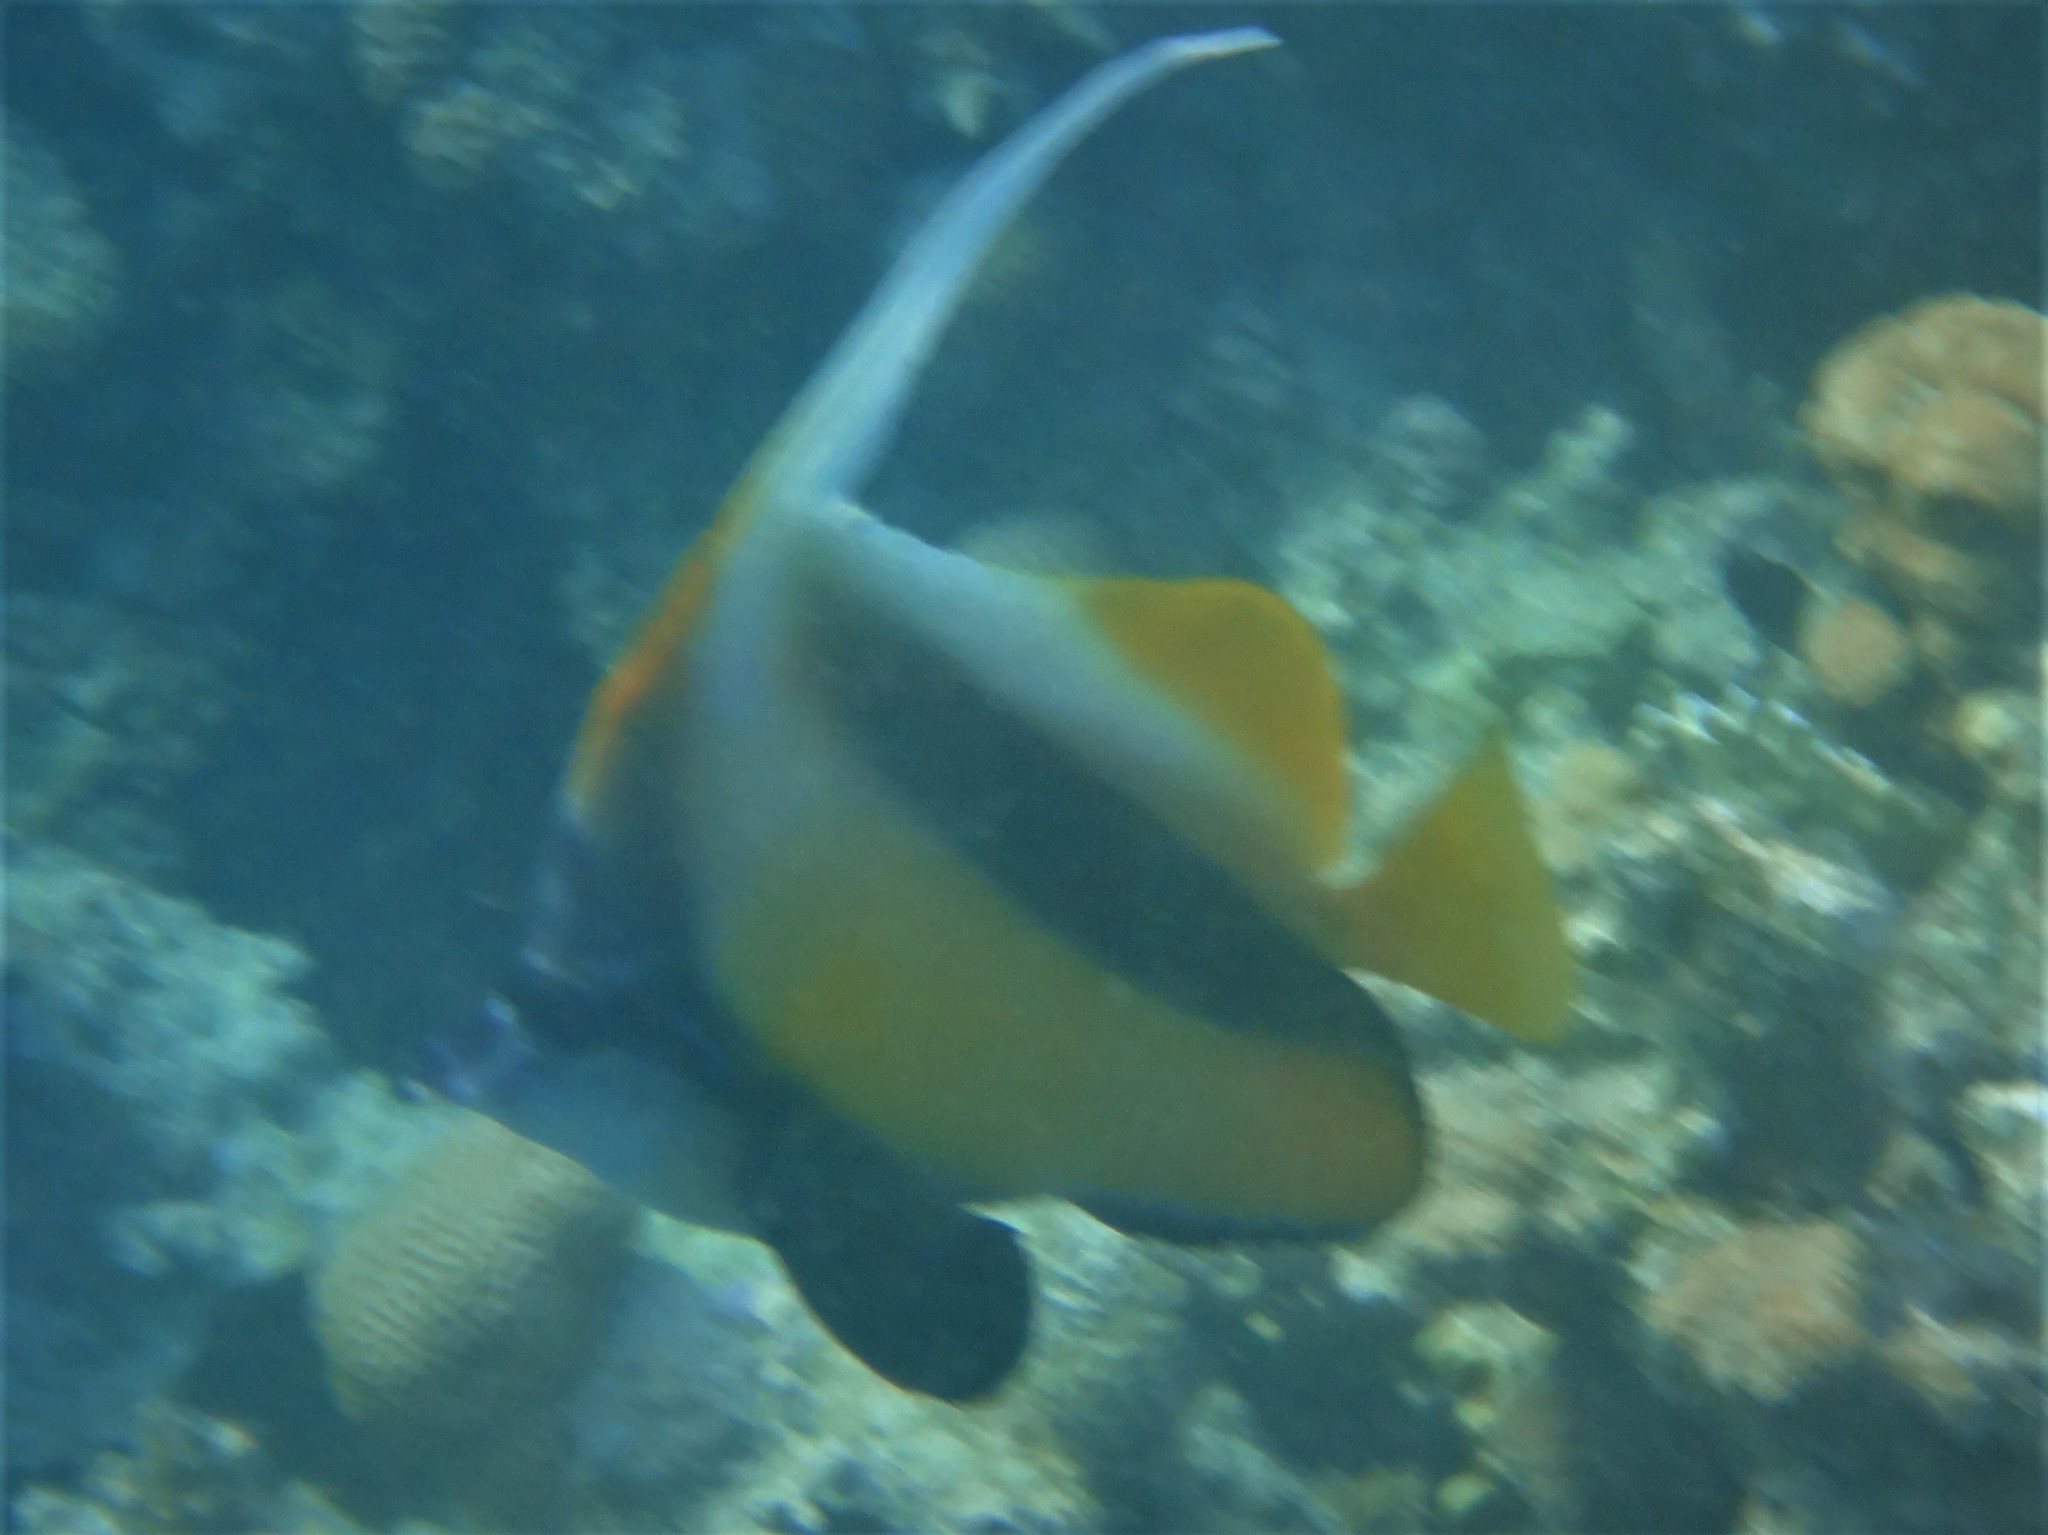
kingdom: Animalia
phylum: Chordata
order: Perciformes
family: Chaetodontidae
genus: Heniochus
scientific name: Heniochus intermedius
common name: Red sea bannerfish
